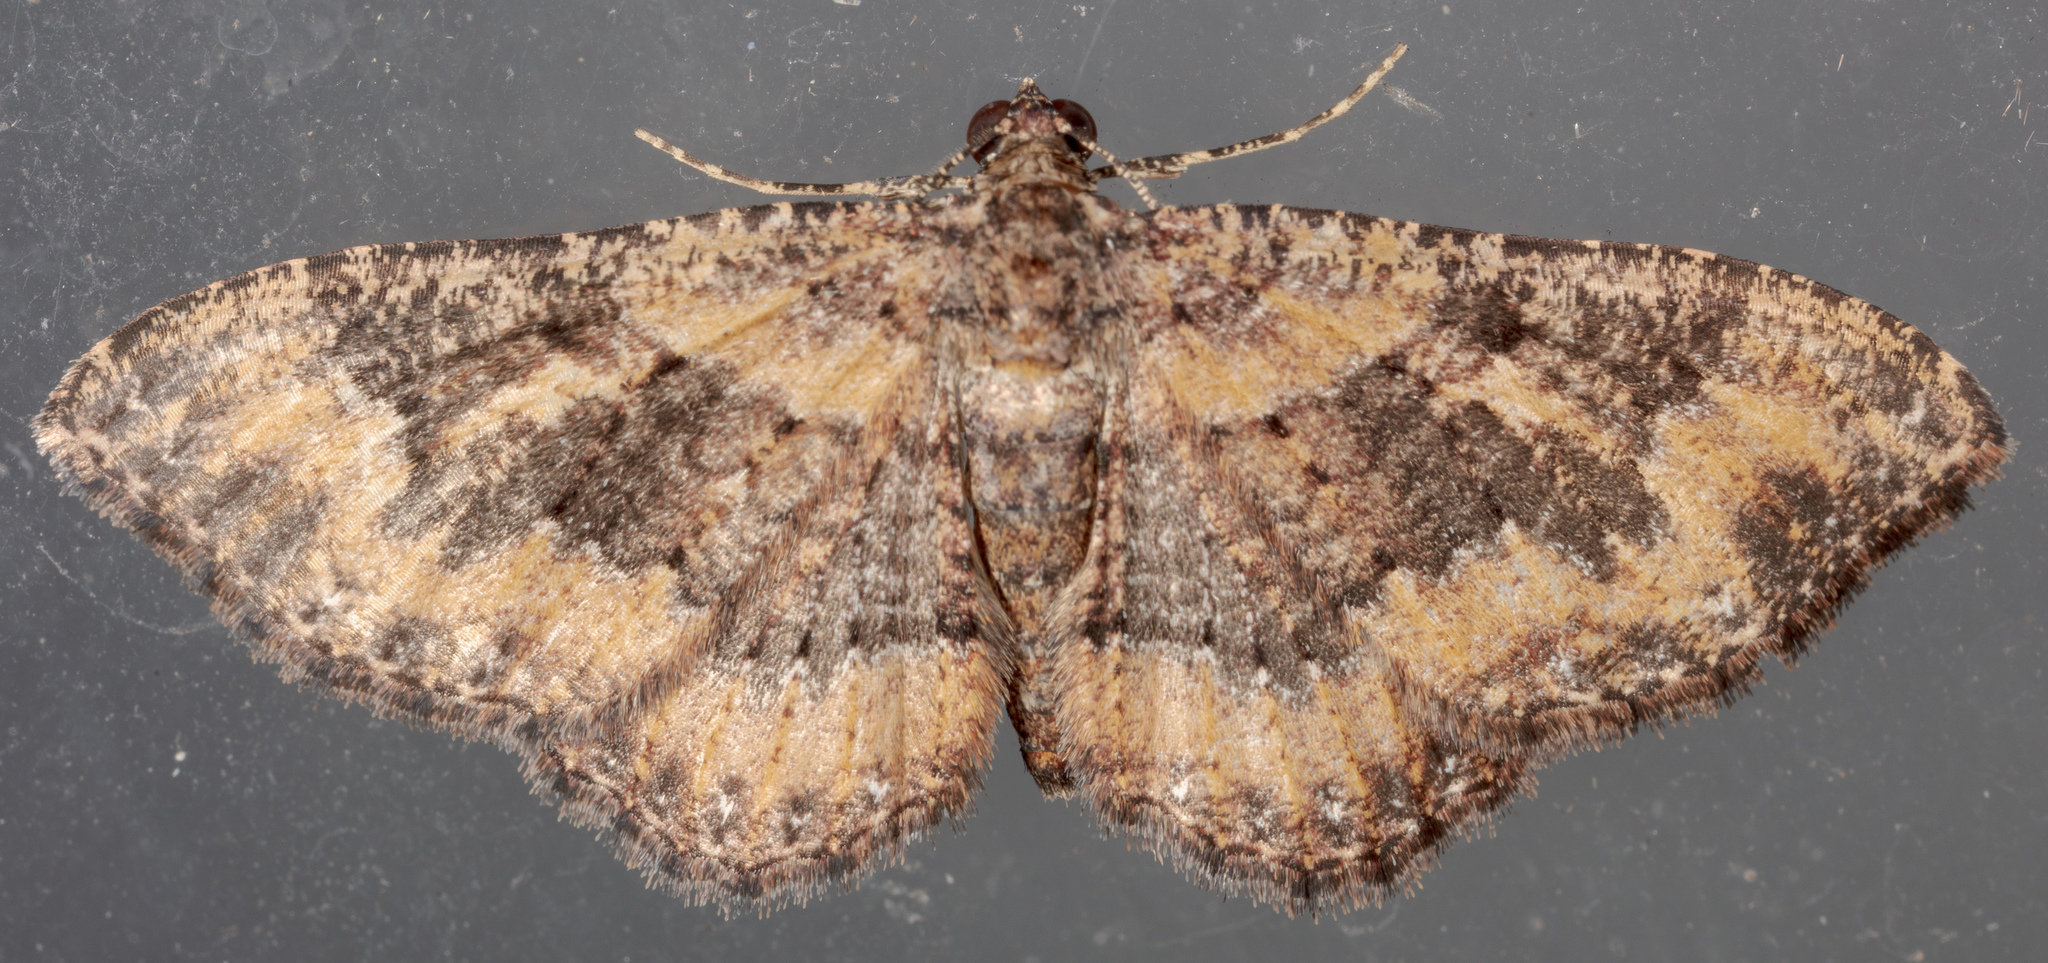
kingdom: Animalia
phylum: Arthropoda
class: Insecta
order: Lepidoptera
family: Geometridae
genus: Disclisioprocta
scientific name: Disclisioprocta stellata
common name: Somber carpet
